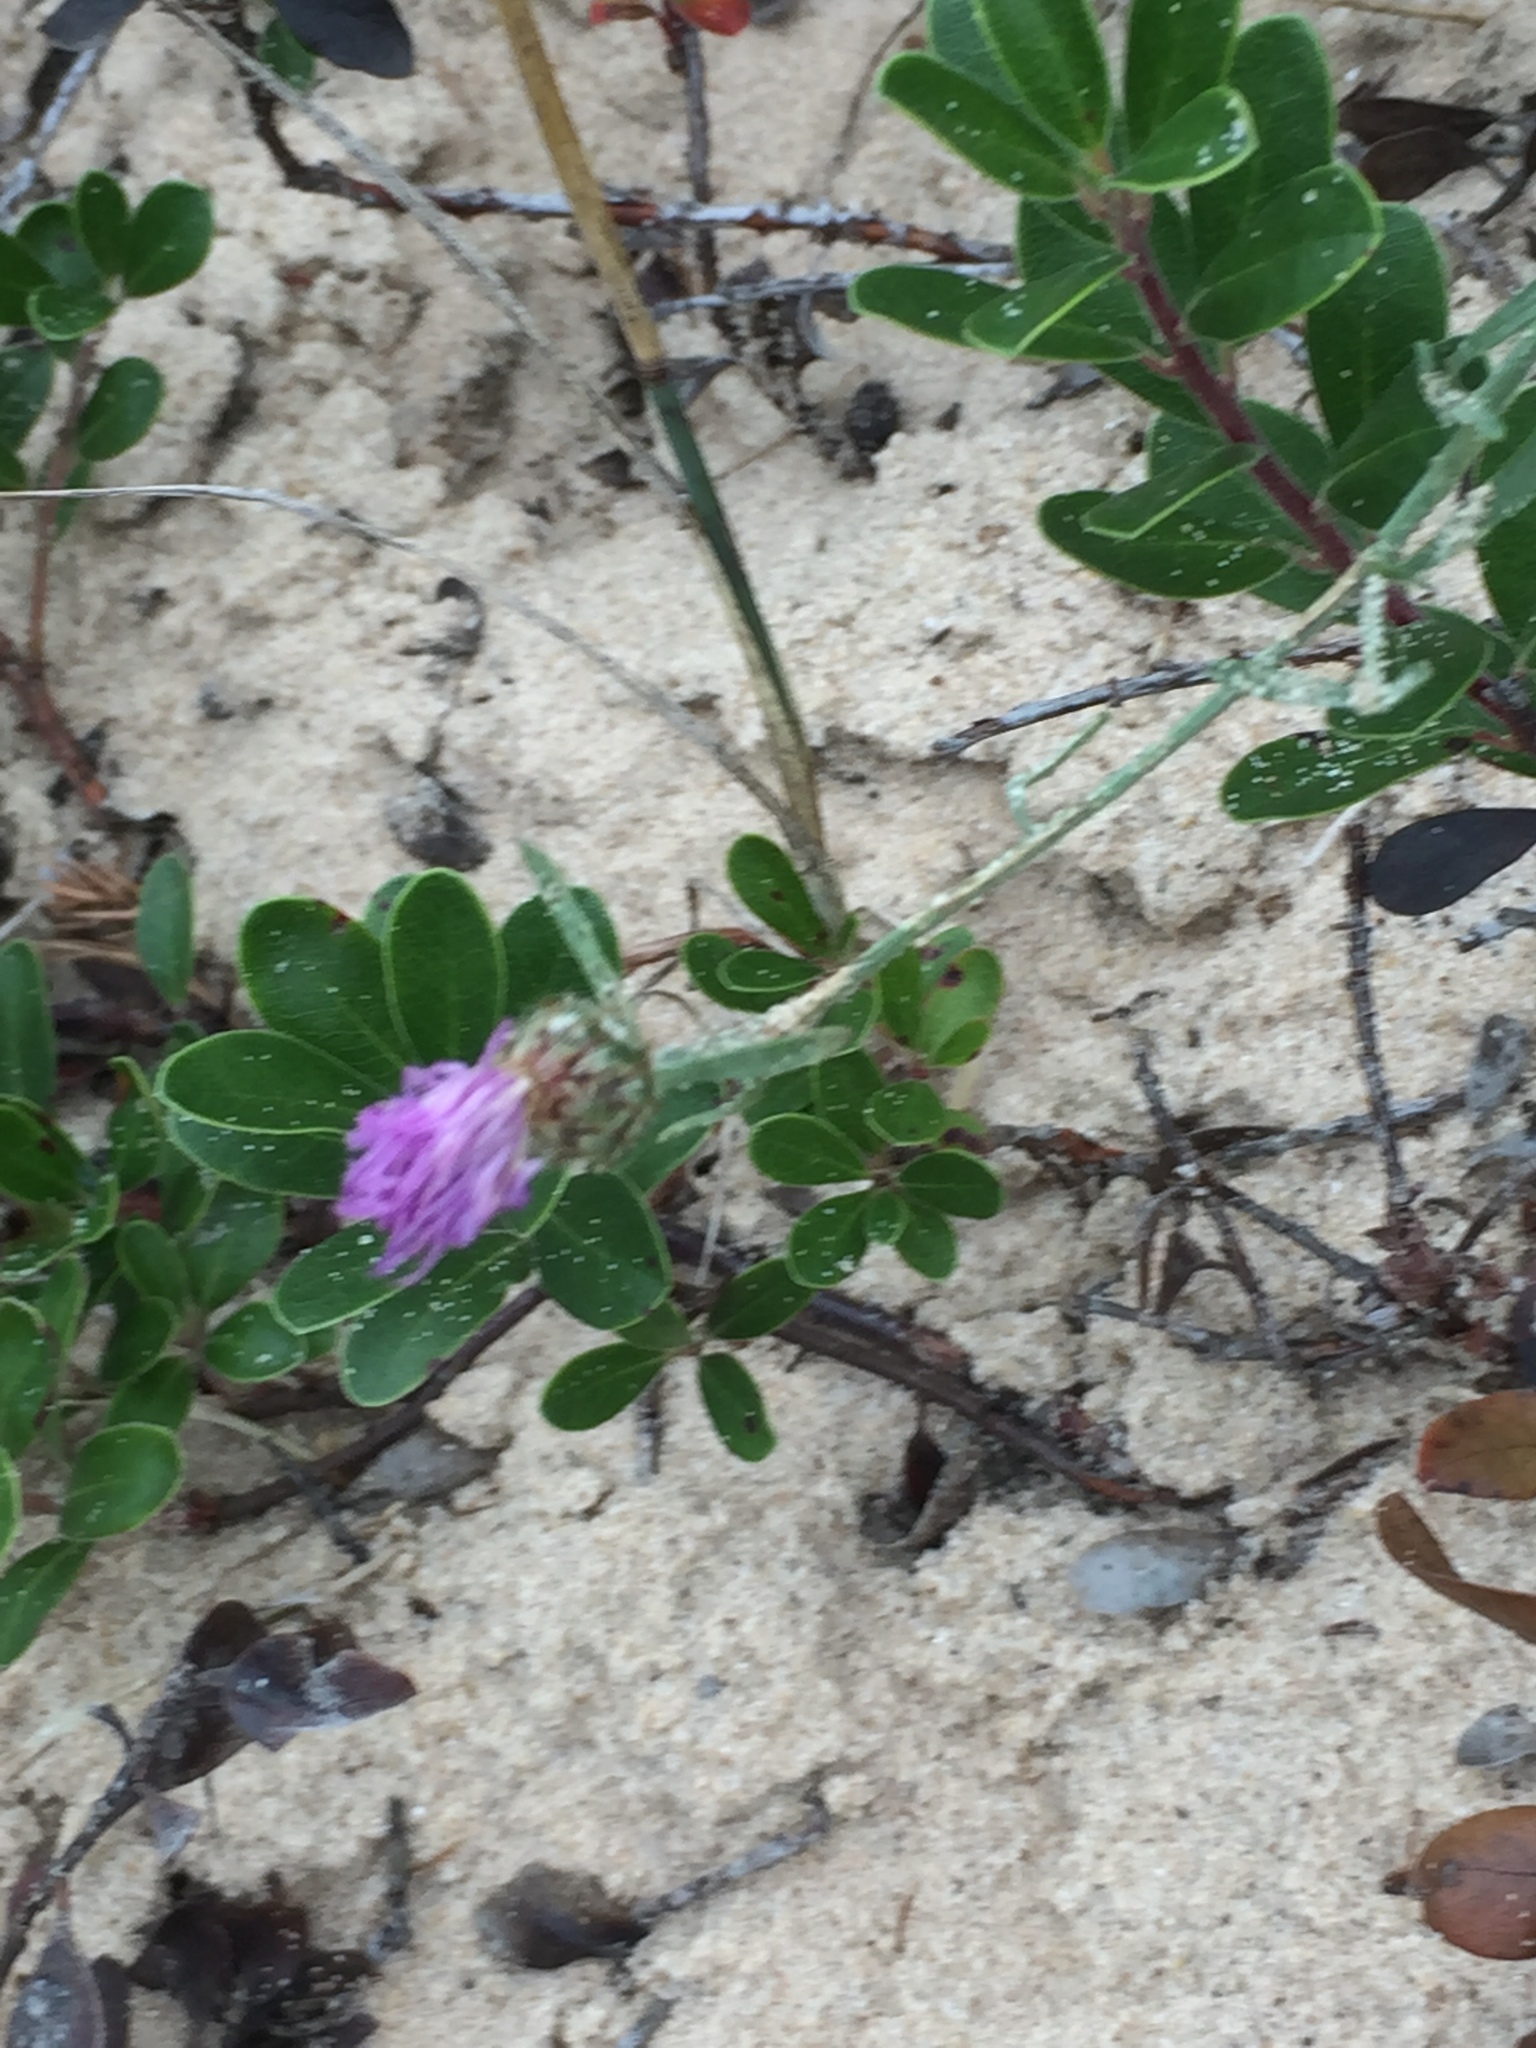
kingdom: Plantae
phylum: Tracheophyta
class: Magnoliopsida
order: Asterales
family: Asteraceae
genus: Centaurea
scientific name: Centaurea stoebe
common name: Spotted knapweed
